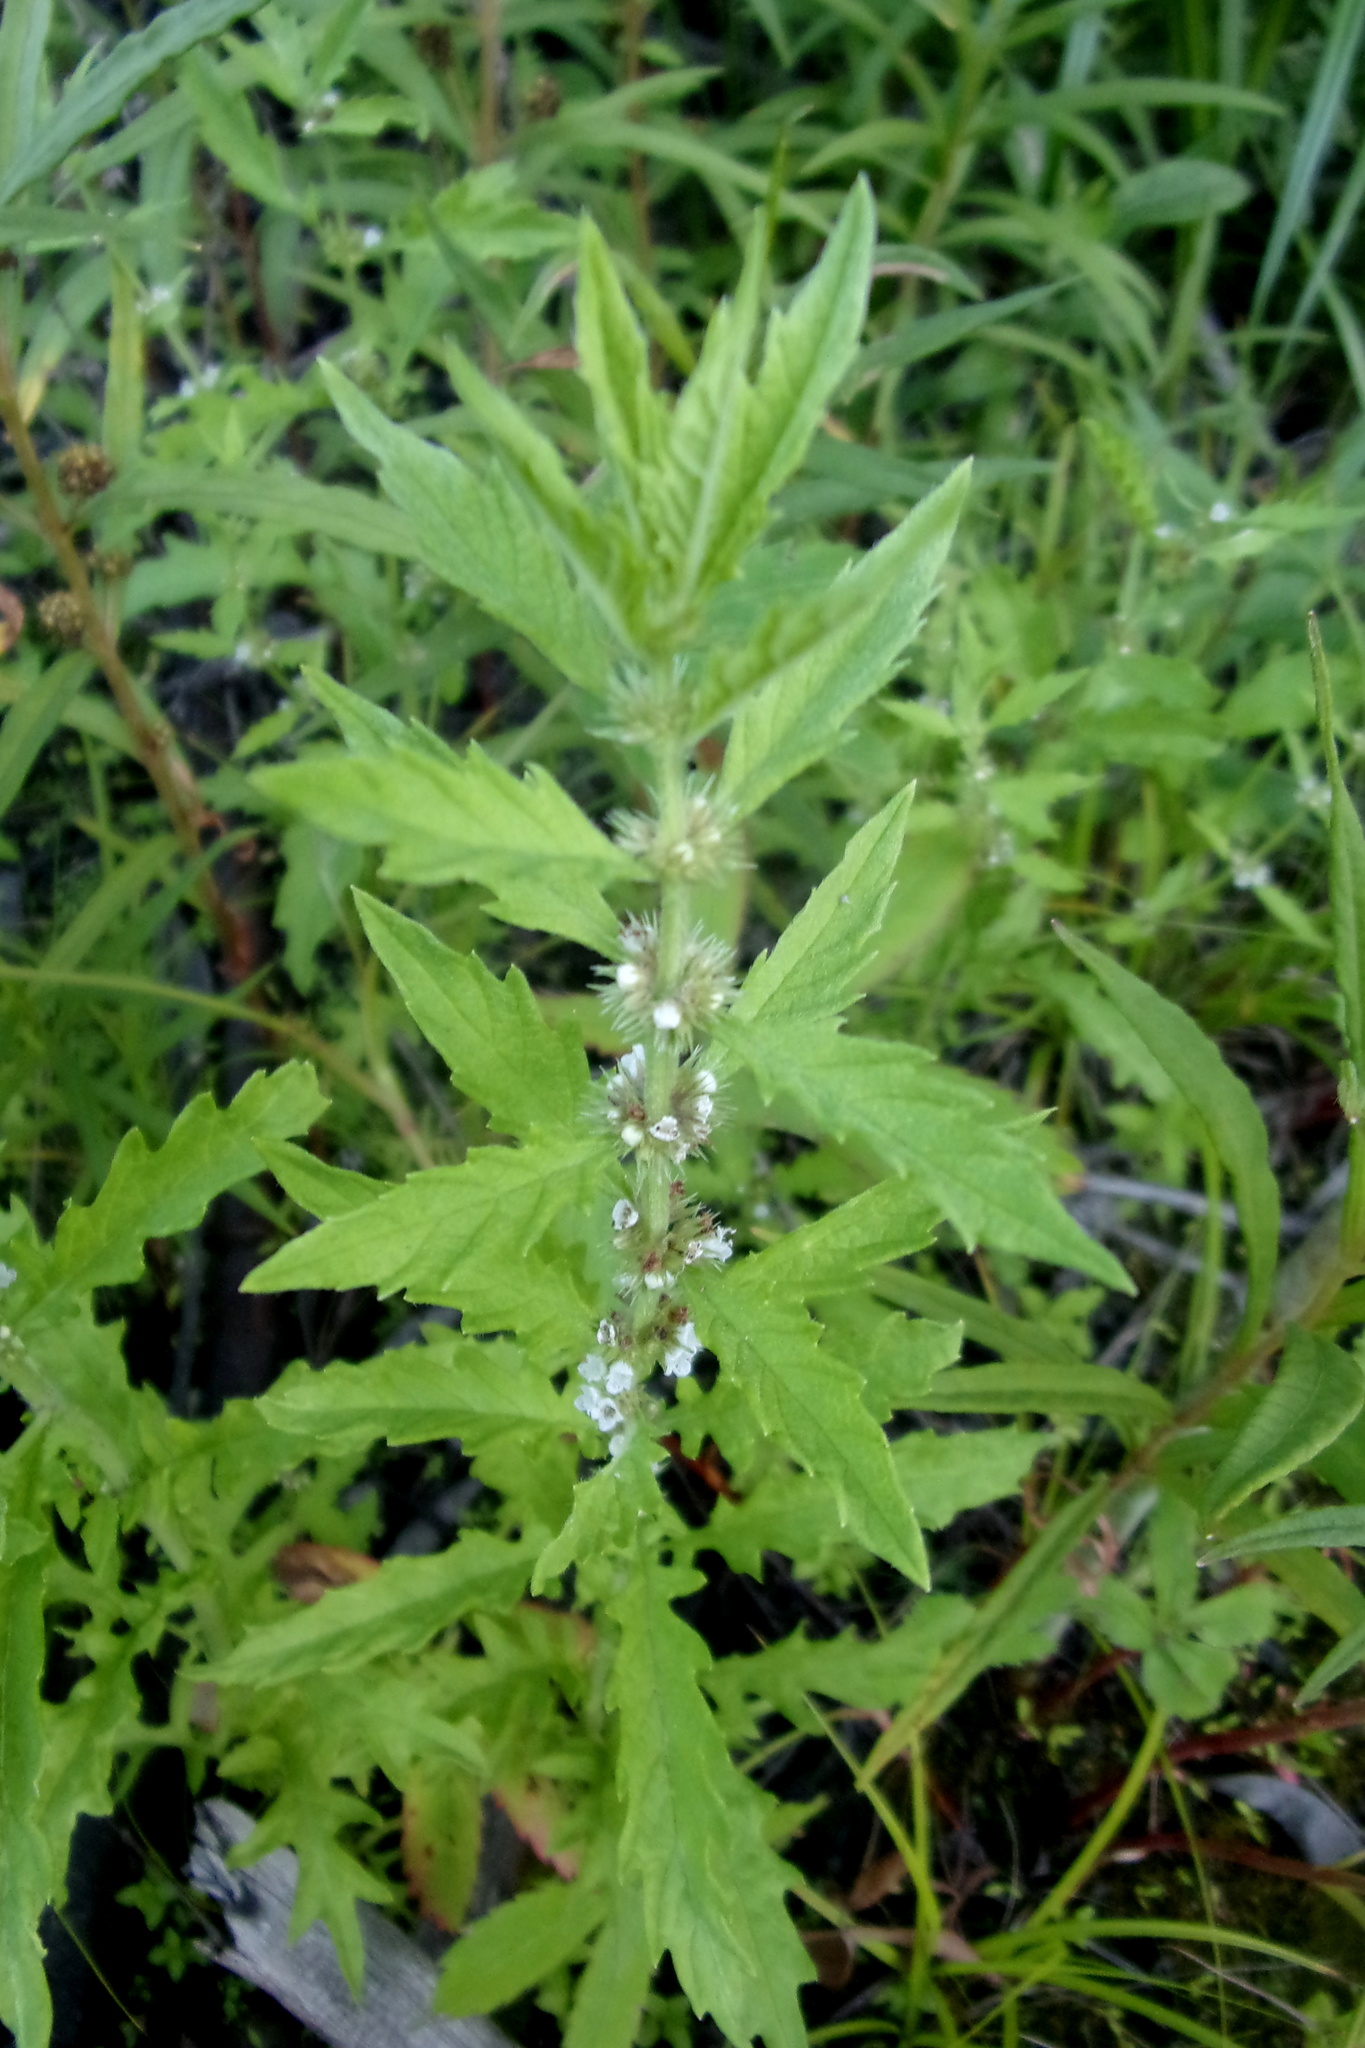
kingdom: Plantae
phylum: Tracheophyta
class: Magnoliopsida
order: Lamiales
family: Lamiaceae
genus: Lycopus
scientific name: Lycopus europaeus
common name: European bugleweed
